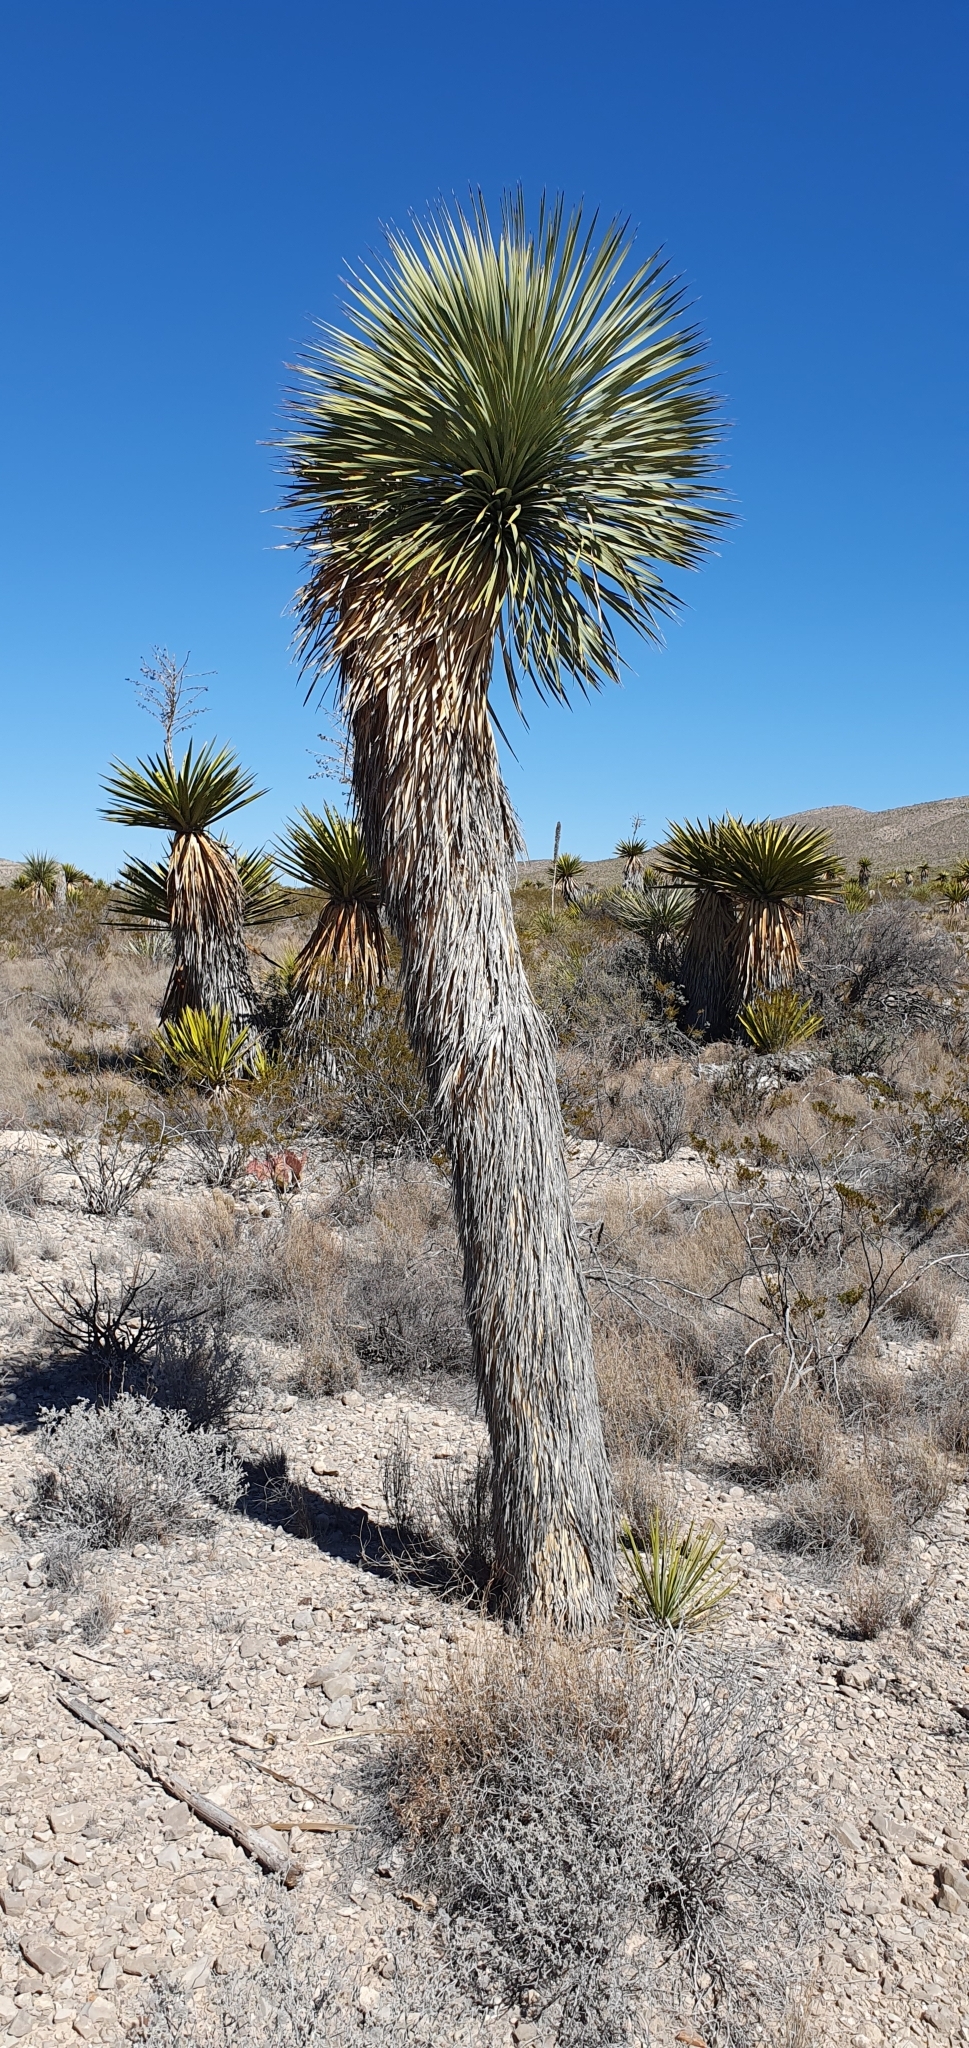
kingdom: Plantae
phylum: Tracheophyta
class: Liliopsida
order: Asparagales
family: Asparagaceae
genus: Yucca
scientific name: Yucca rostrata
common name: Big bend yucca
